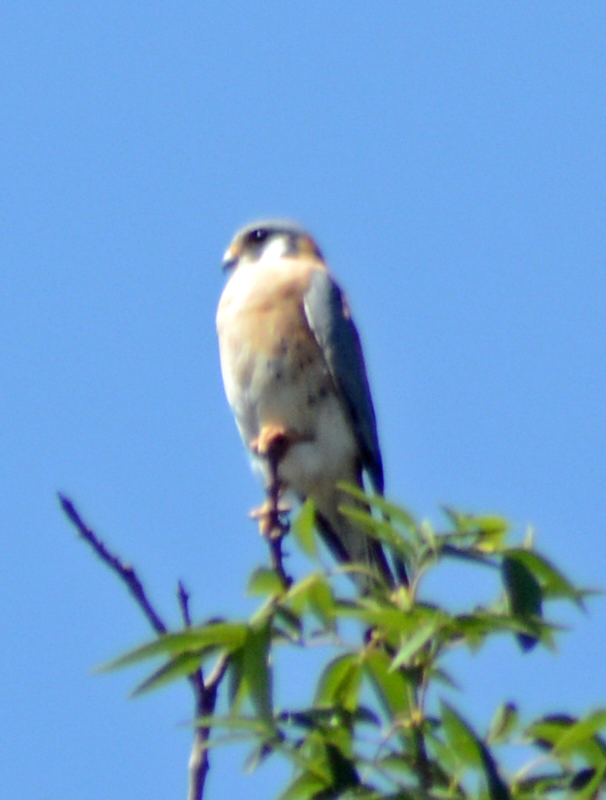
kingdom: Animalia
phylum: Chordata
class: Aves
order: Falconiformes
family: Falconidae
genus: Falco
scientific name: Falco sparverius
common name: American kestrel
